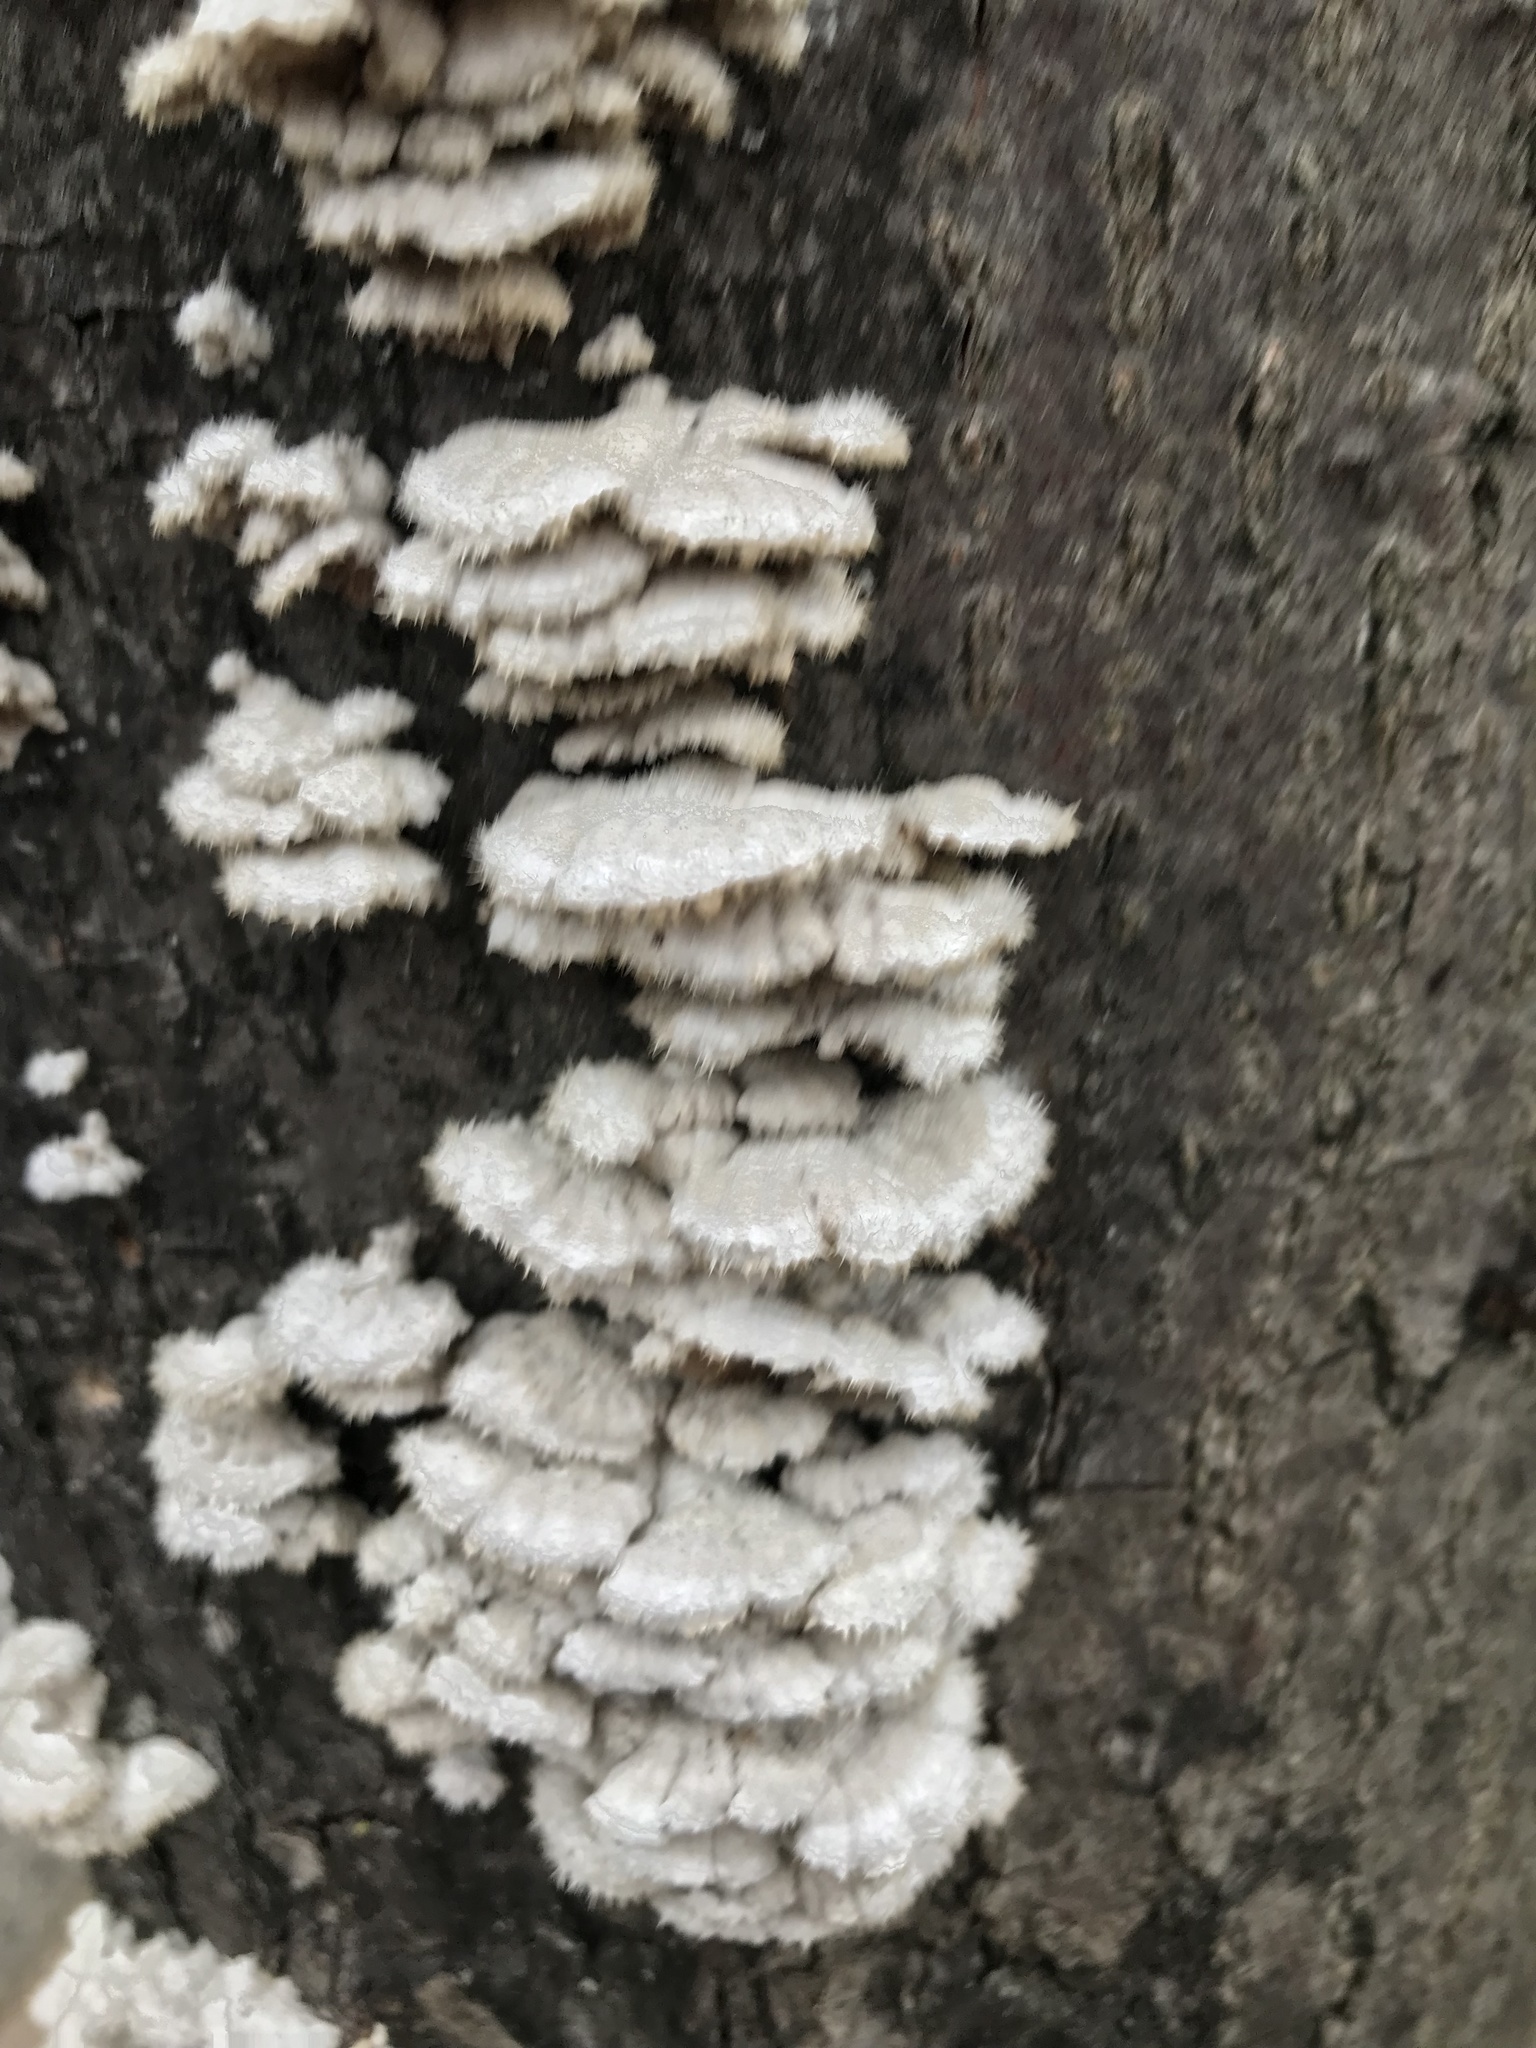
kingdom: Fungi
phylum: Basidiomycota
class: Agaricomycetes
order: Agaricales
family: Schizophyllaceae
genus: Schizophyllum
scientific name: Schizophyllum commune
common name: Common porecrust
